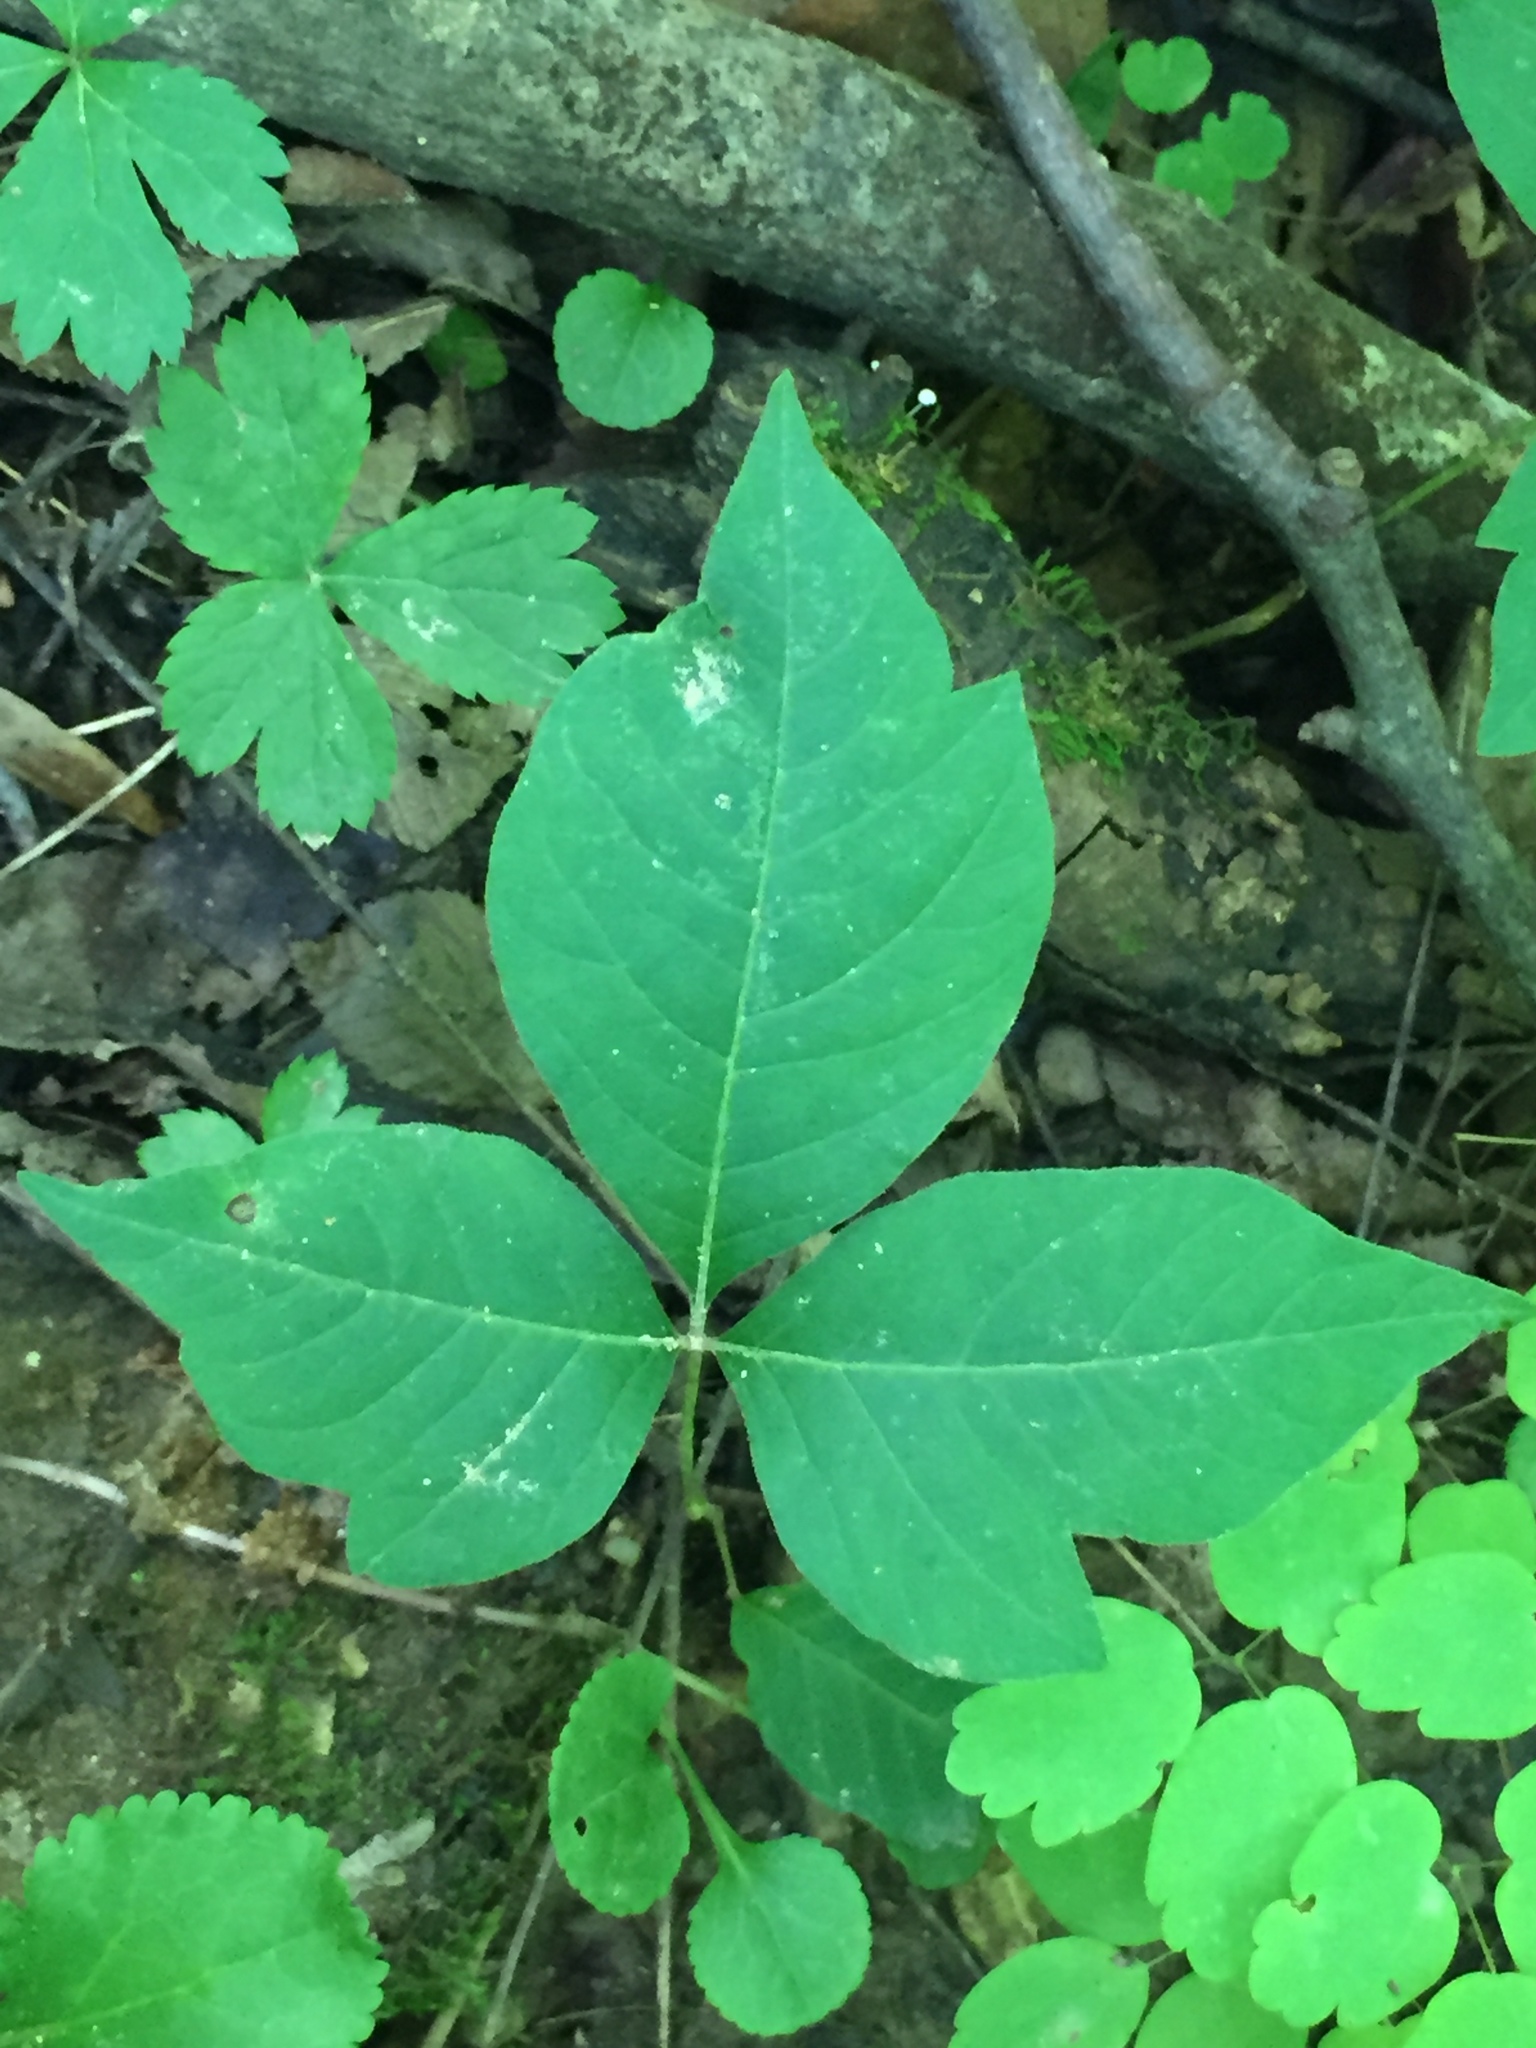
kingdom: Plantae
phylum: Tracheophyta
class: Magnoliopsida
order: Sapindales
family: Anacardiaceae
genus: Toxicodendron
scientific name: Toxicodendron radicans
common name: Poison ivy
